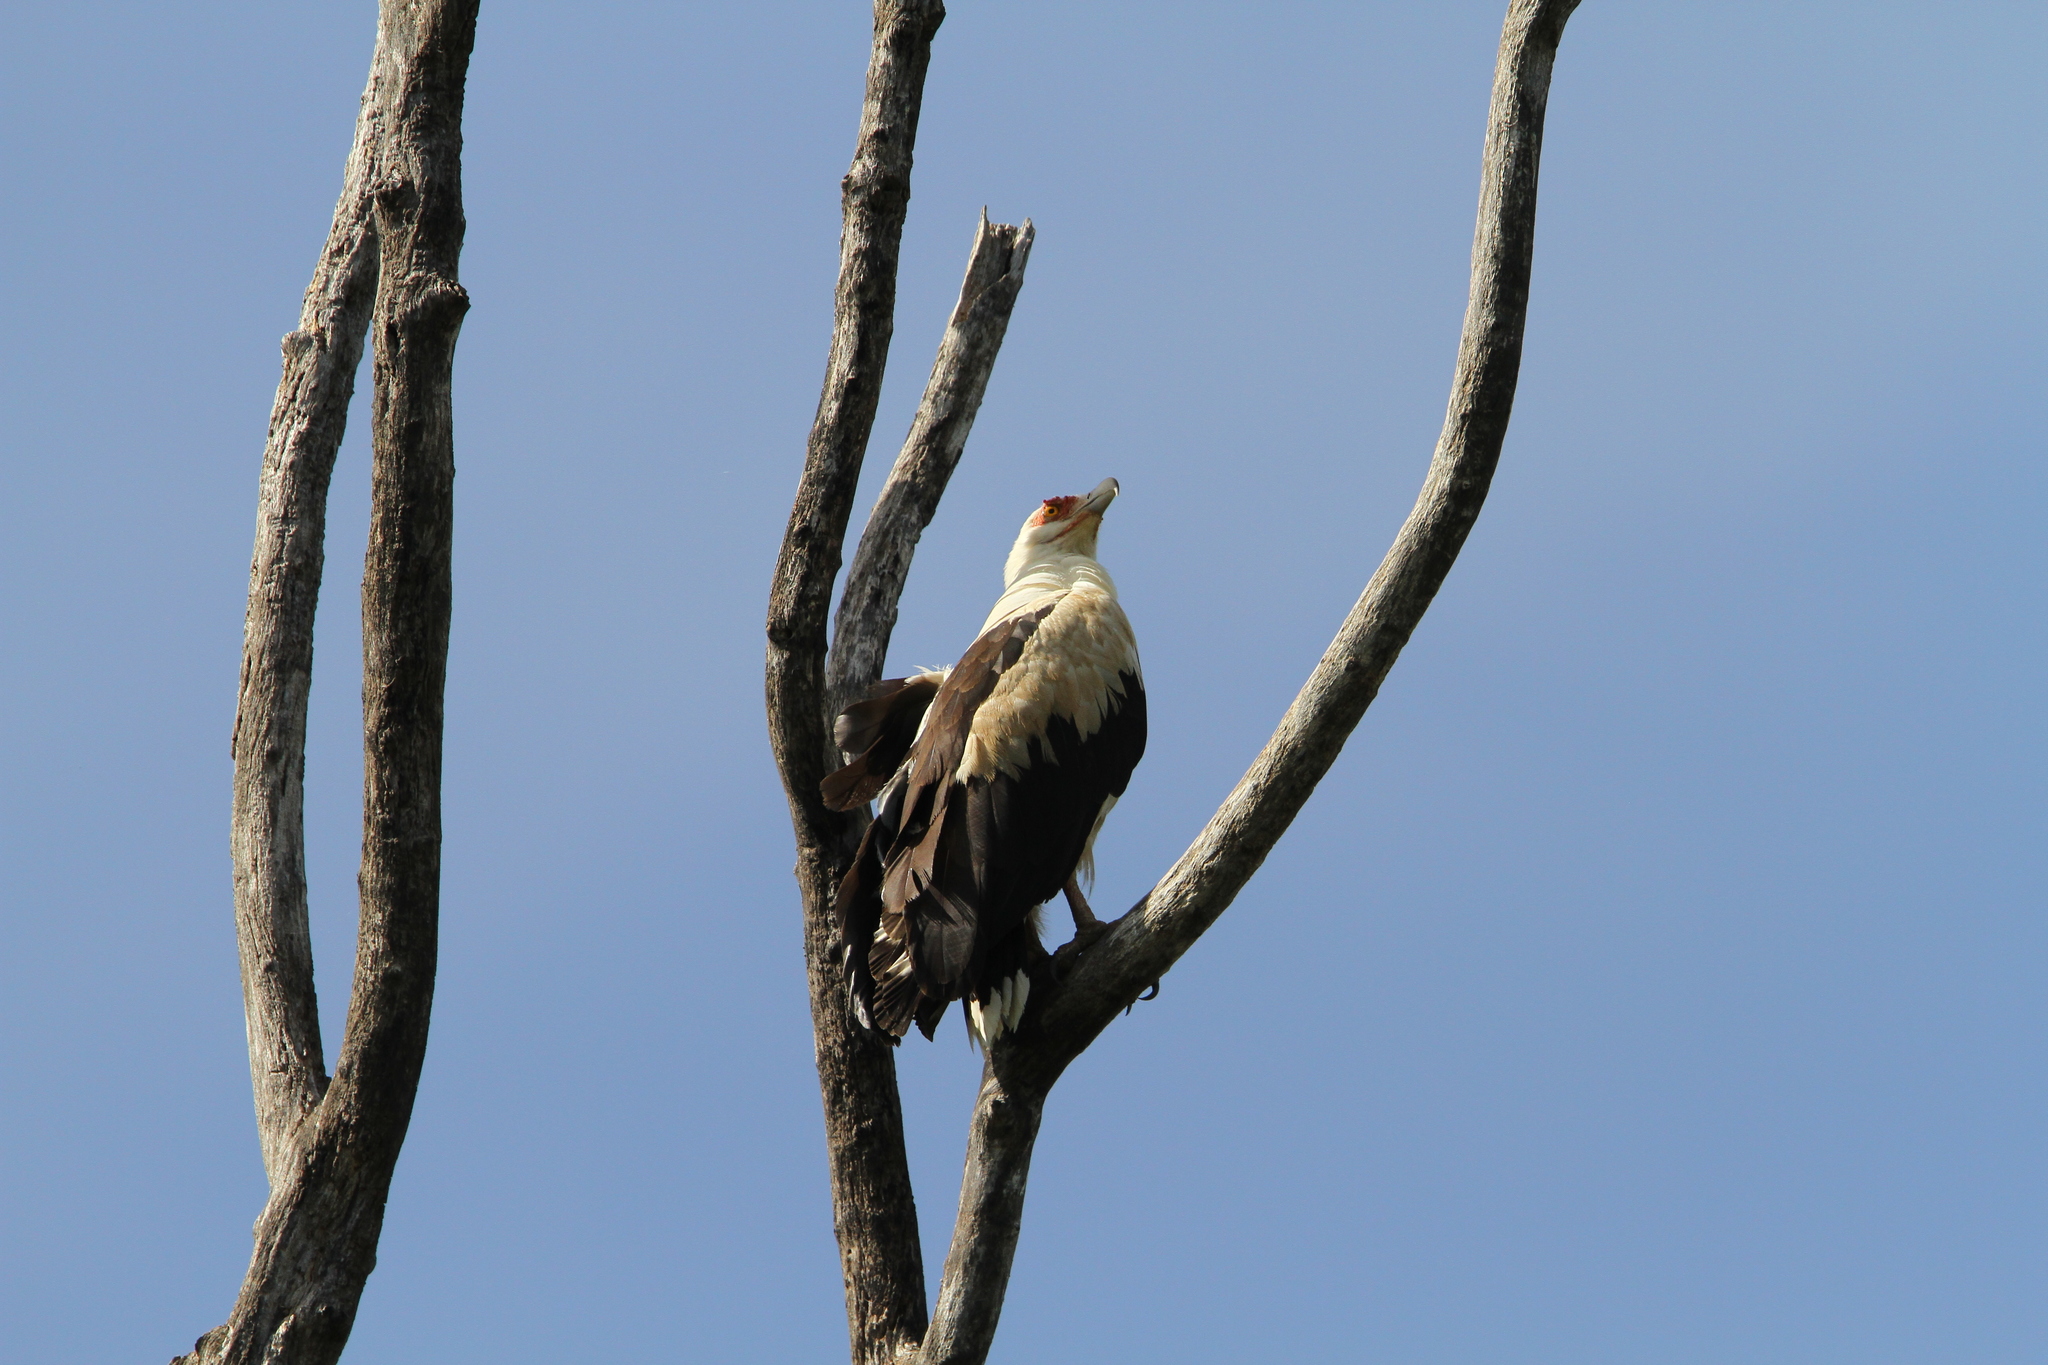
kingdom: Animalia
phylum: Chordata
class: Aves
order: Accipitriformes
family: Accipitridae
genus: Gypohierax
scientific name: Gypohierax angolensis
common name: Palm-nut vulture
